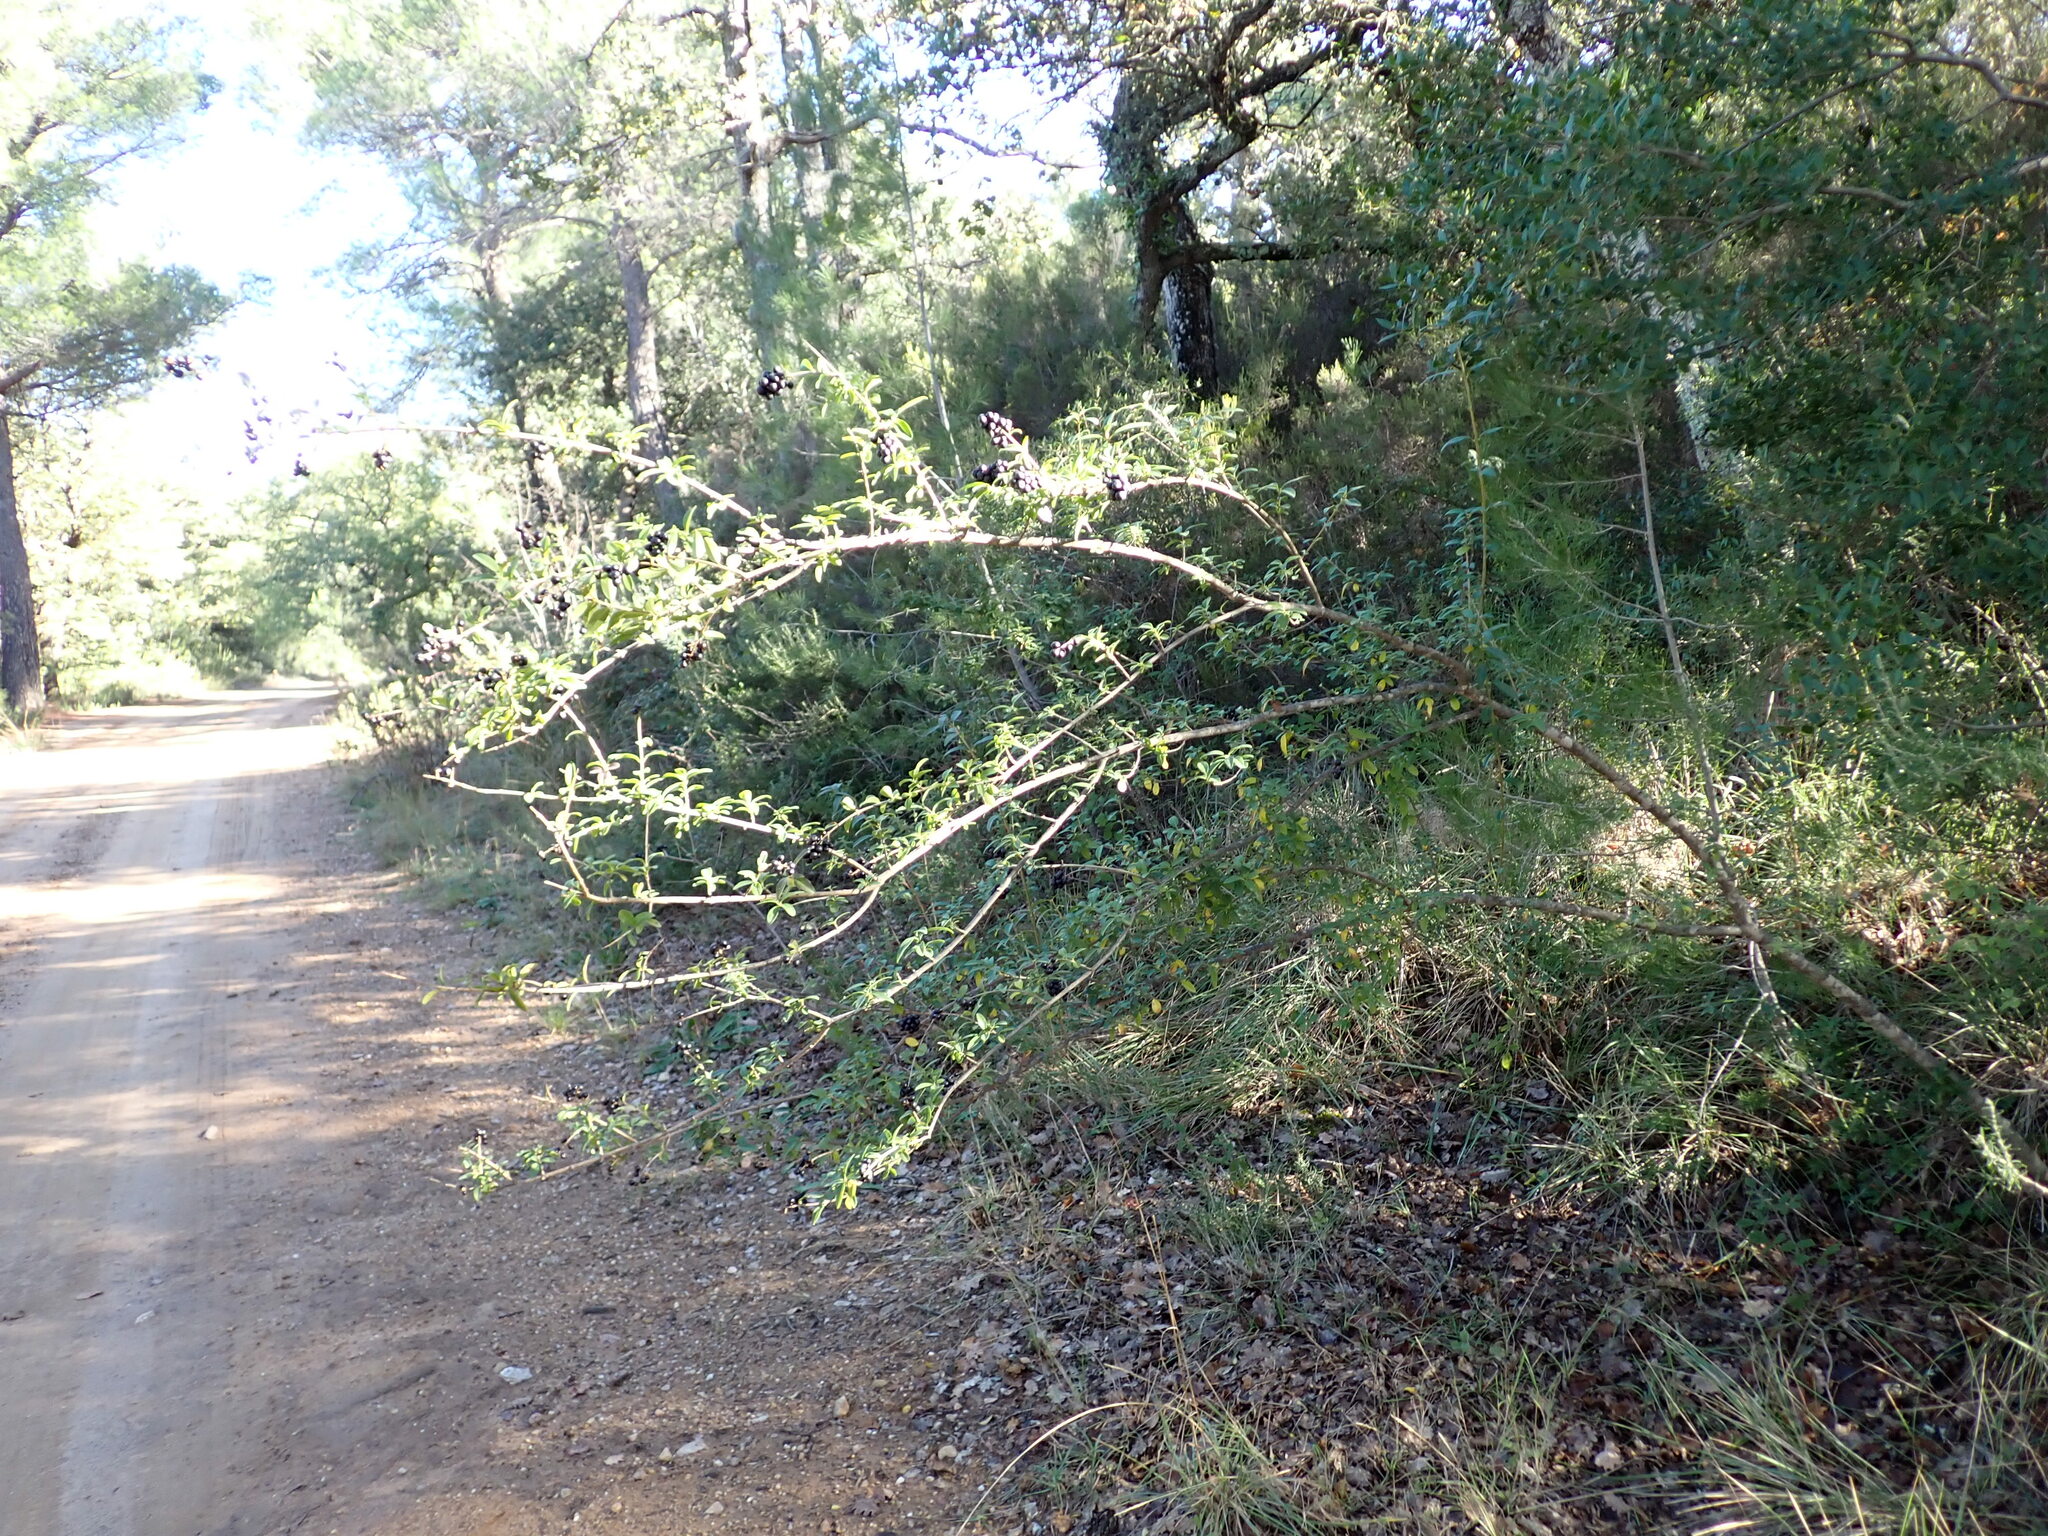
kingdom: Plantae
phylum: Tracheophyta
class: Magnoliopsida
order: Lamiales
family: Oleaceae
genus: Ligustrum
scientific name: Ligustrum vulgare
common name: Wild privet
